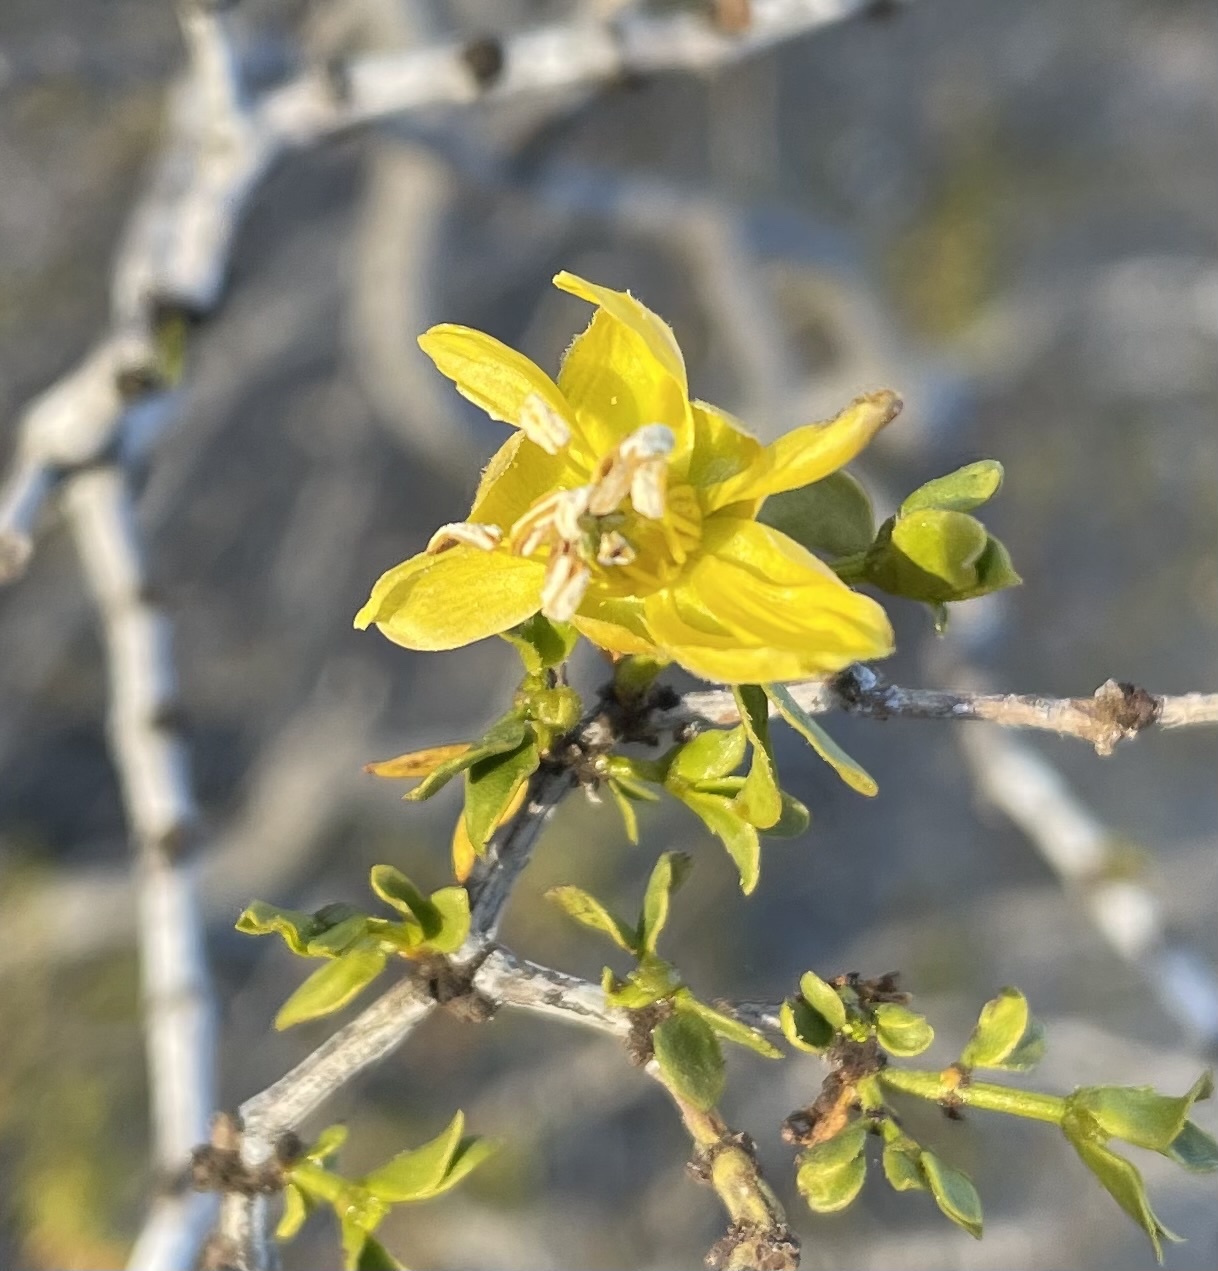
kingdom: Plantae
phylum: Tracheophyta
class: Magnoliopsida
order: Zygophyllales
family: Zygophyllaceae
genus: Larrea
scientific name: Larrea tridentata
